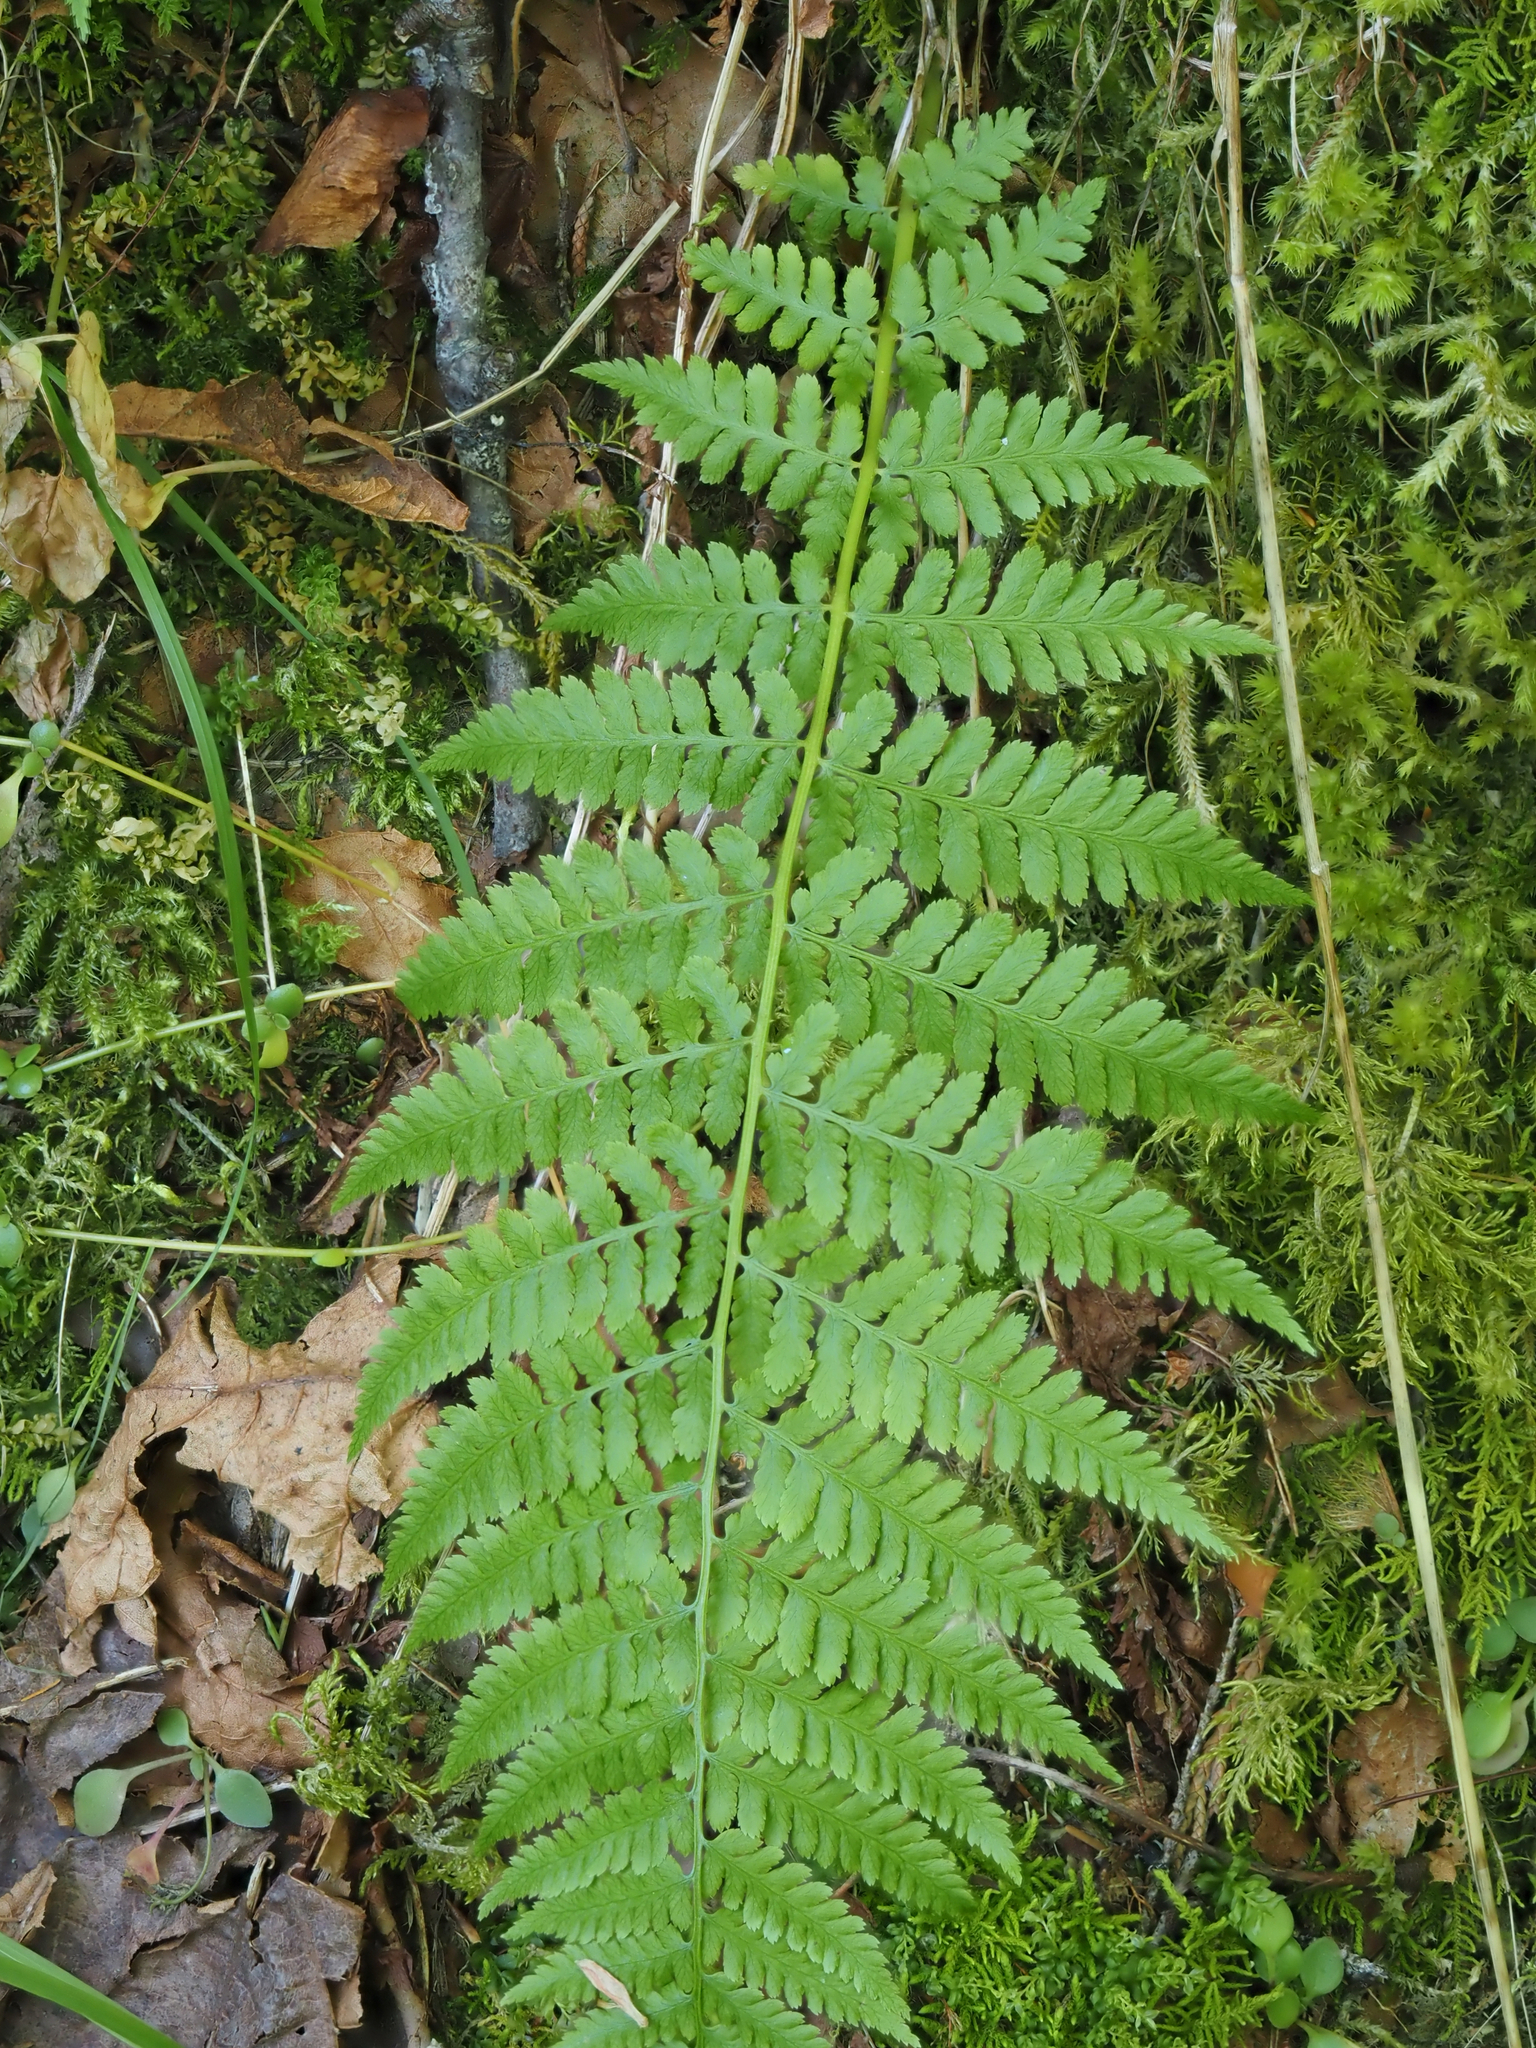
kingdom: Plantae
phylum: Tracheophyta
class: Polypodiopsida
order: Polypodiales
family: Athyriaceae
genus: Athyrium
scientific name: Athyrium filix-femina
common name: Lady fern
